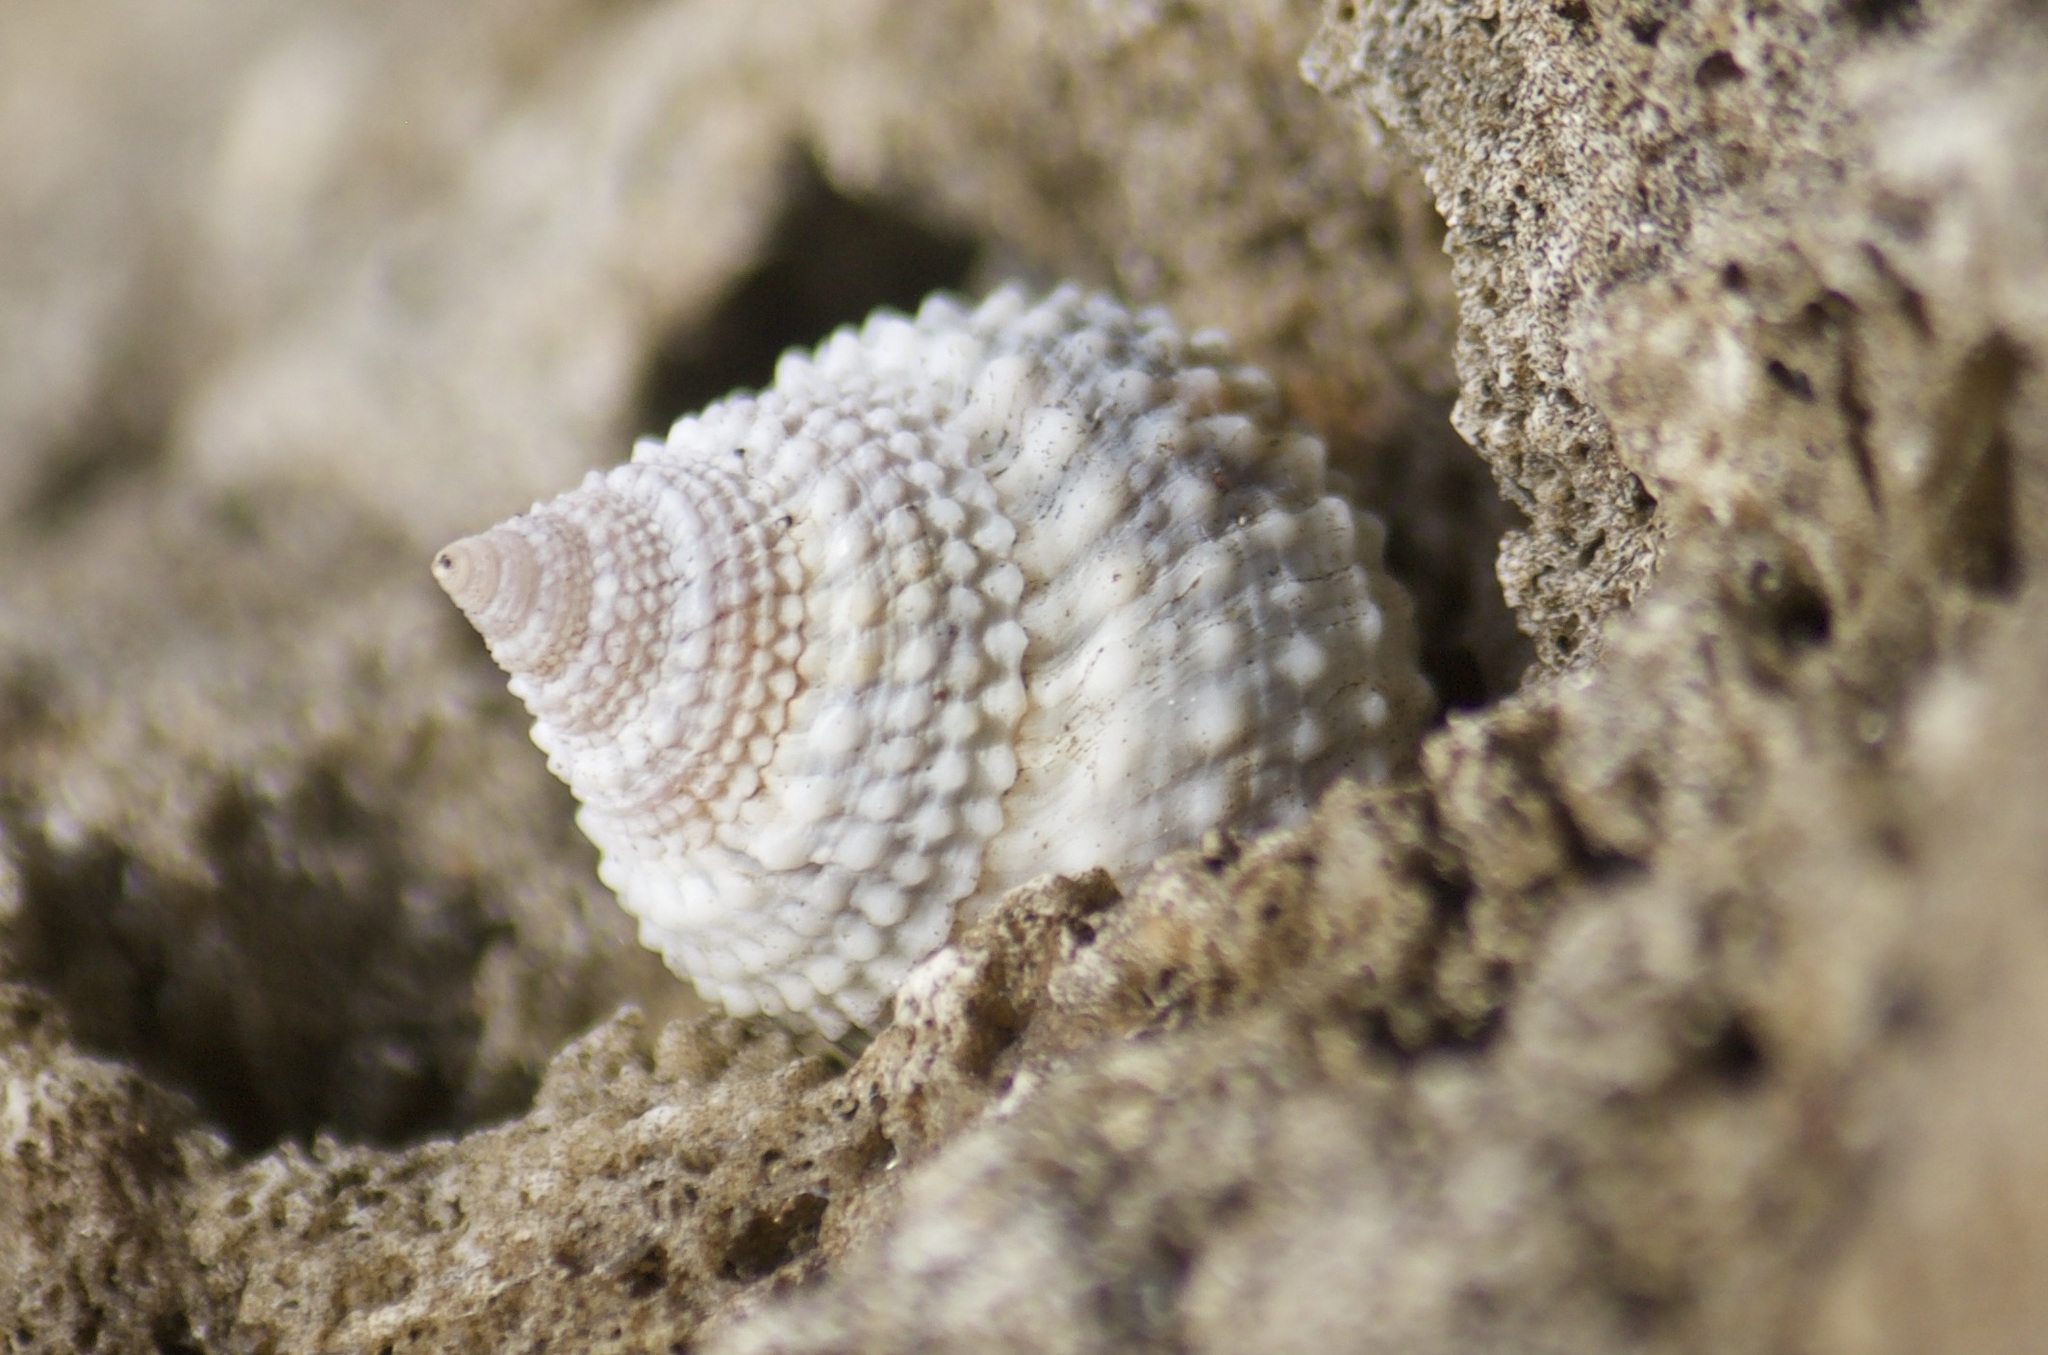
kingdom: Animalia
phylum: Mollusca
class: Gastropoda
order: Littorinimorpha
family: Littorinidae
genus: Cenchritis
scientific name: Cenchritis muricatus
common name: Beaded periwinkle
